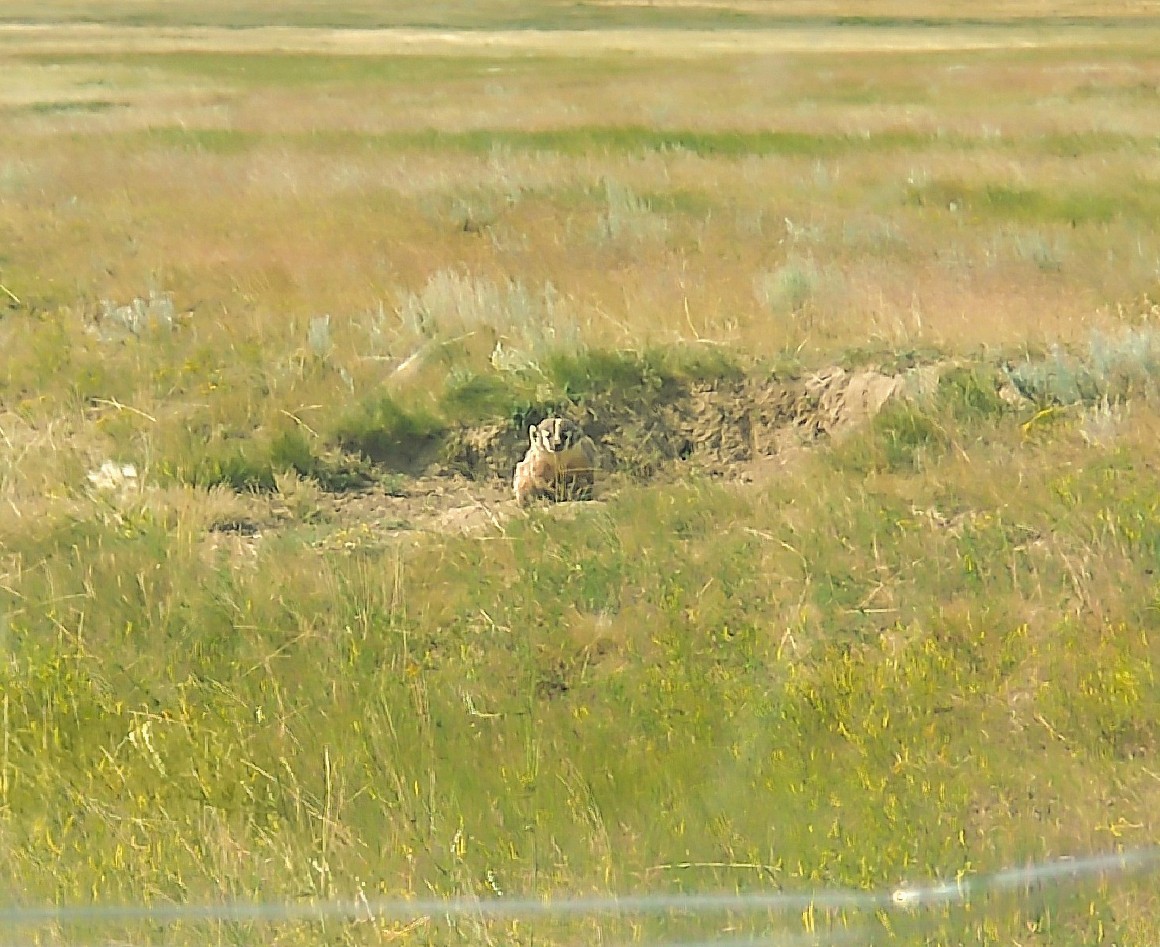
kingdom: Animalia
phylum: Chordata
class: Mammalia
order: Carnivora
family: Mustelidae
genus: Taxidea
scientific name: Taxidea taxus
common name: American badger
